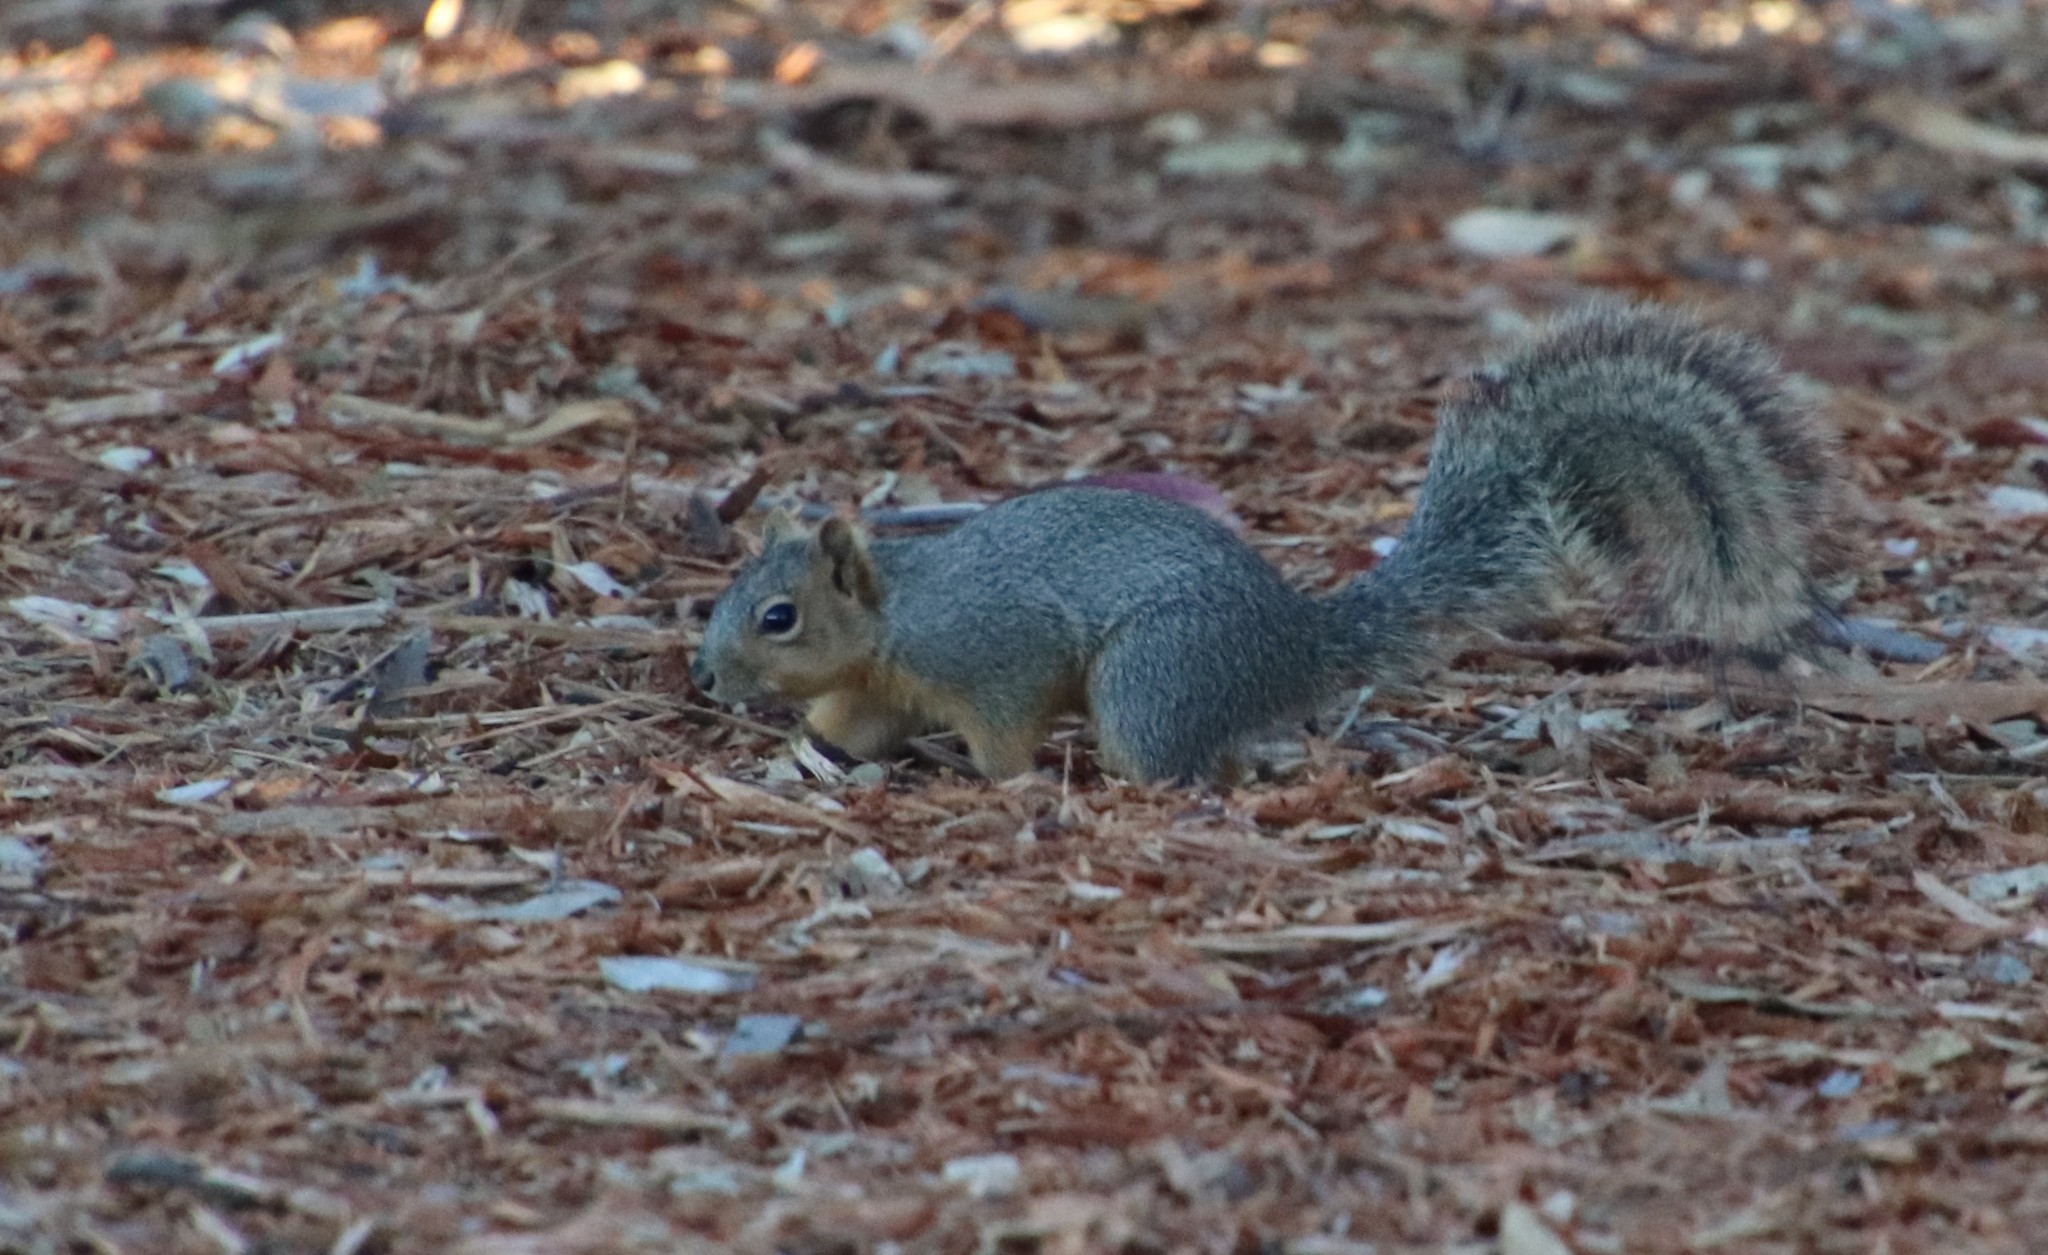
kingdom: Animalia
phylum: Chordata
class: Mammalia
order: Rodentia
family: Sciuridae
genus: Sciurus
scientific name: Sciurus niger
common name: Fox squirrel
